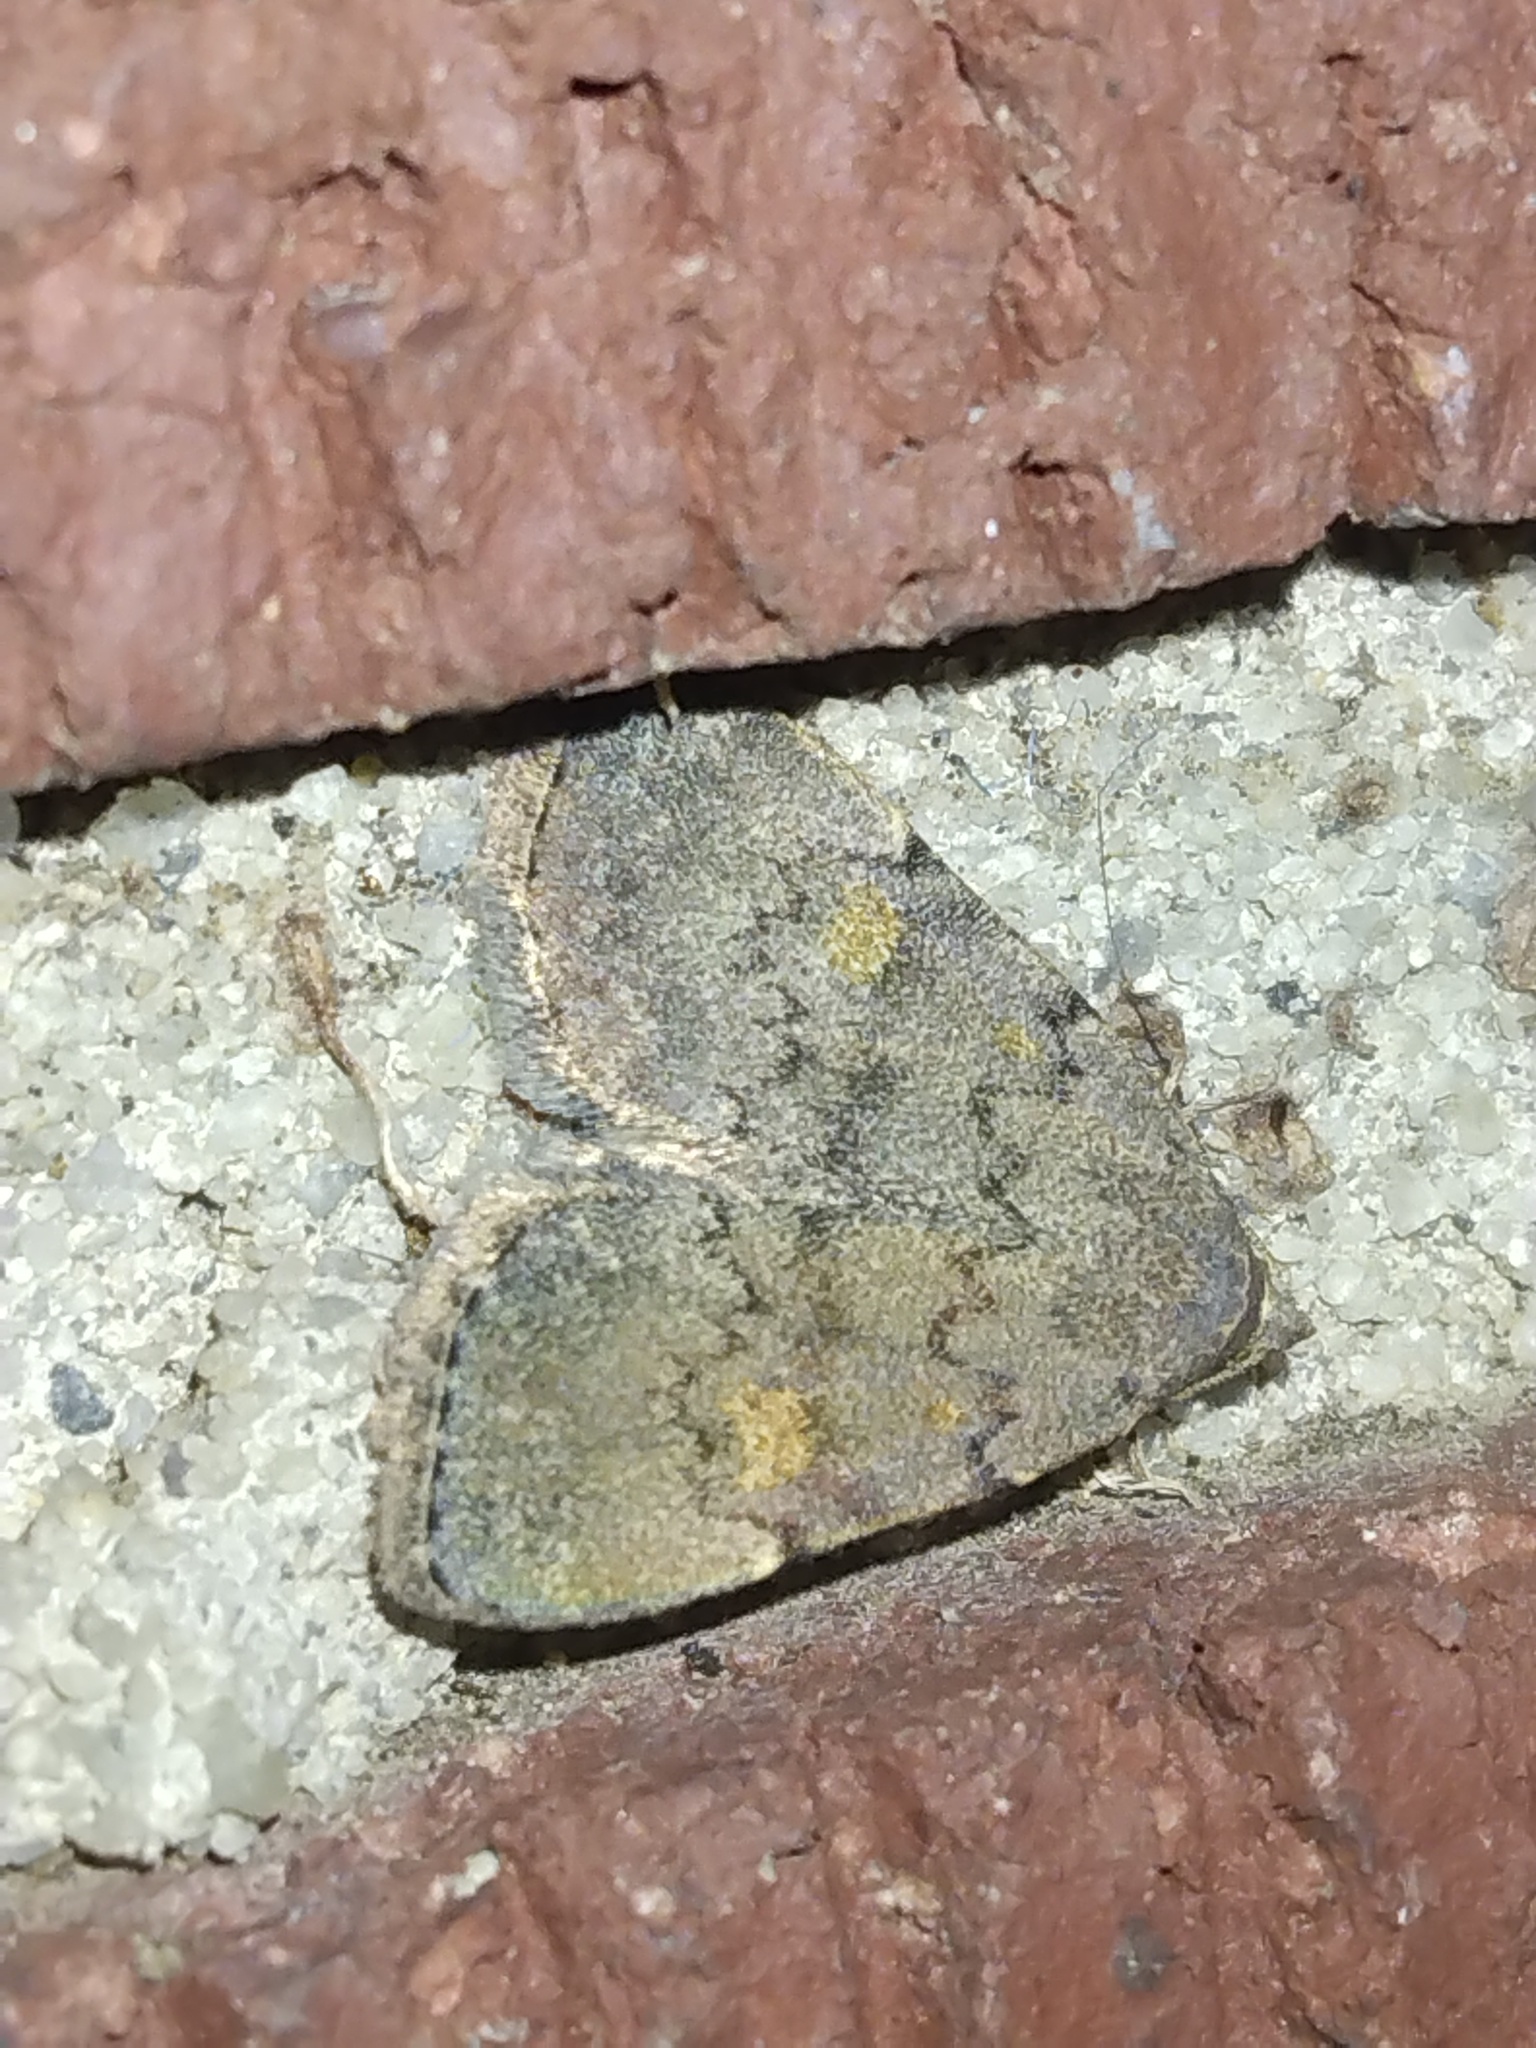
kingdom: Animalia
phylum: Arthropoda
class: Insecta
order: Lepidoptera
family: Erebidae
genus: Idia
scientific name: Idia aemula
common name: Common idia moth
